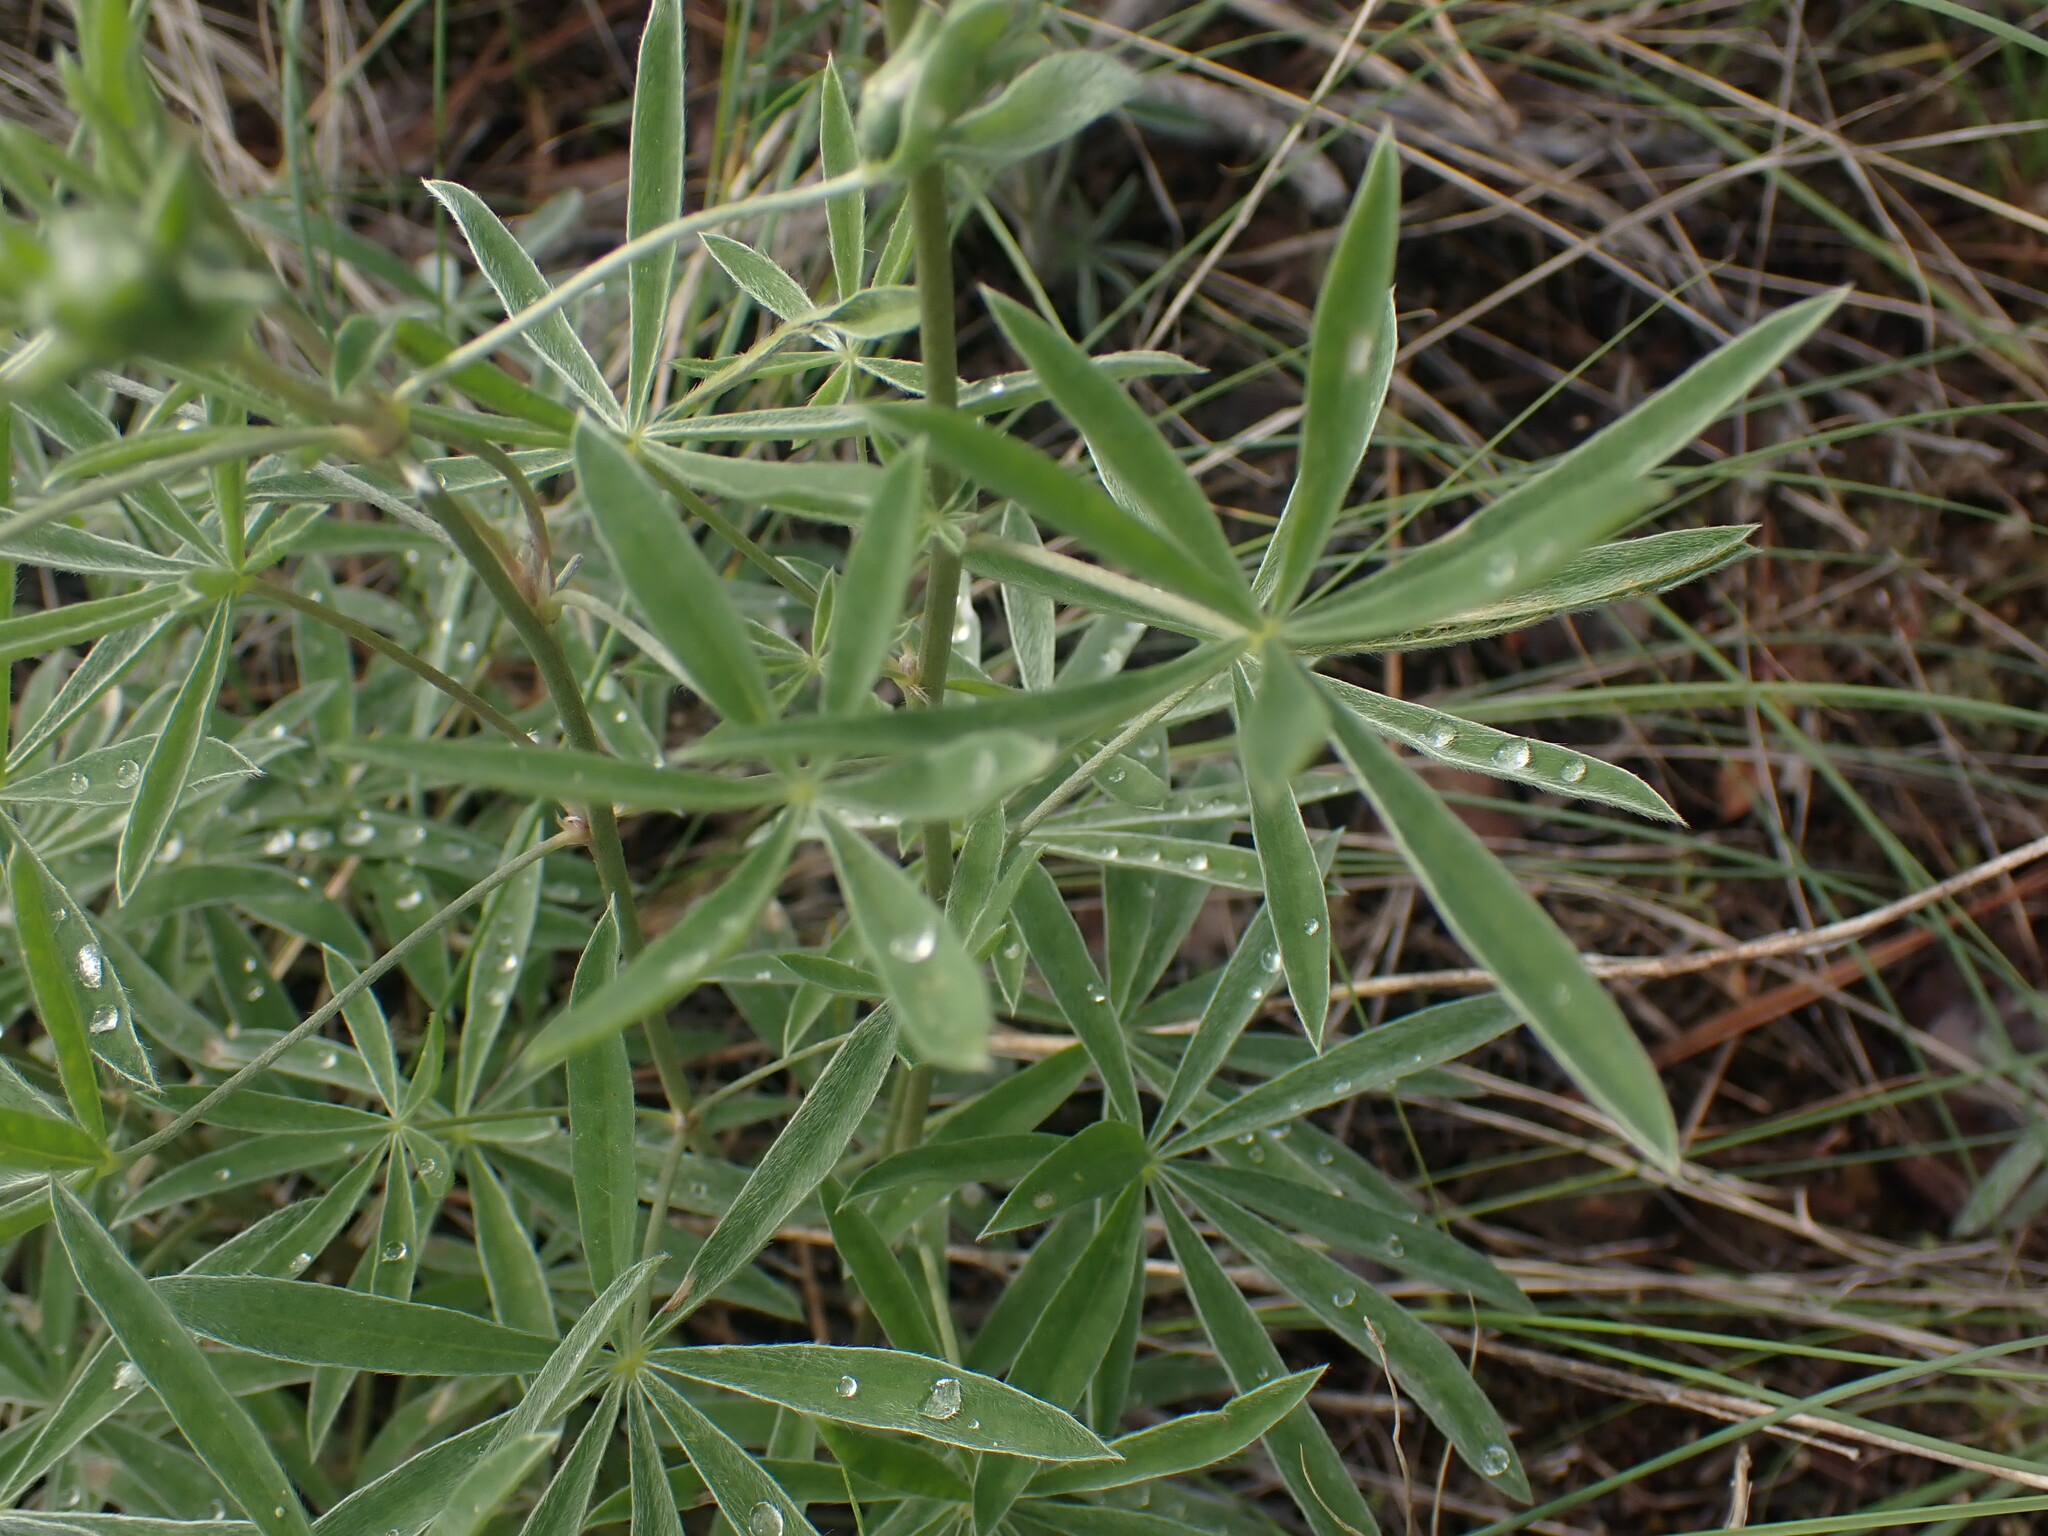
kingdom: Plantae
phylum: Tracheophyta
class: Magnoliopsida
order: Fabales
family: Fabaceae
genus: Lupinus
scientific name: Lupinus sulphureus
